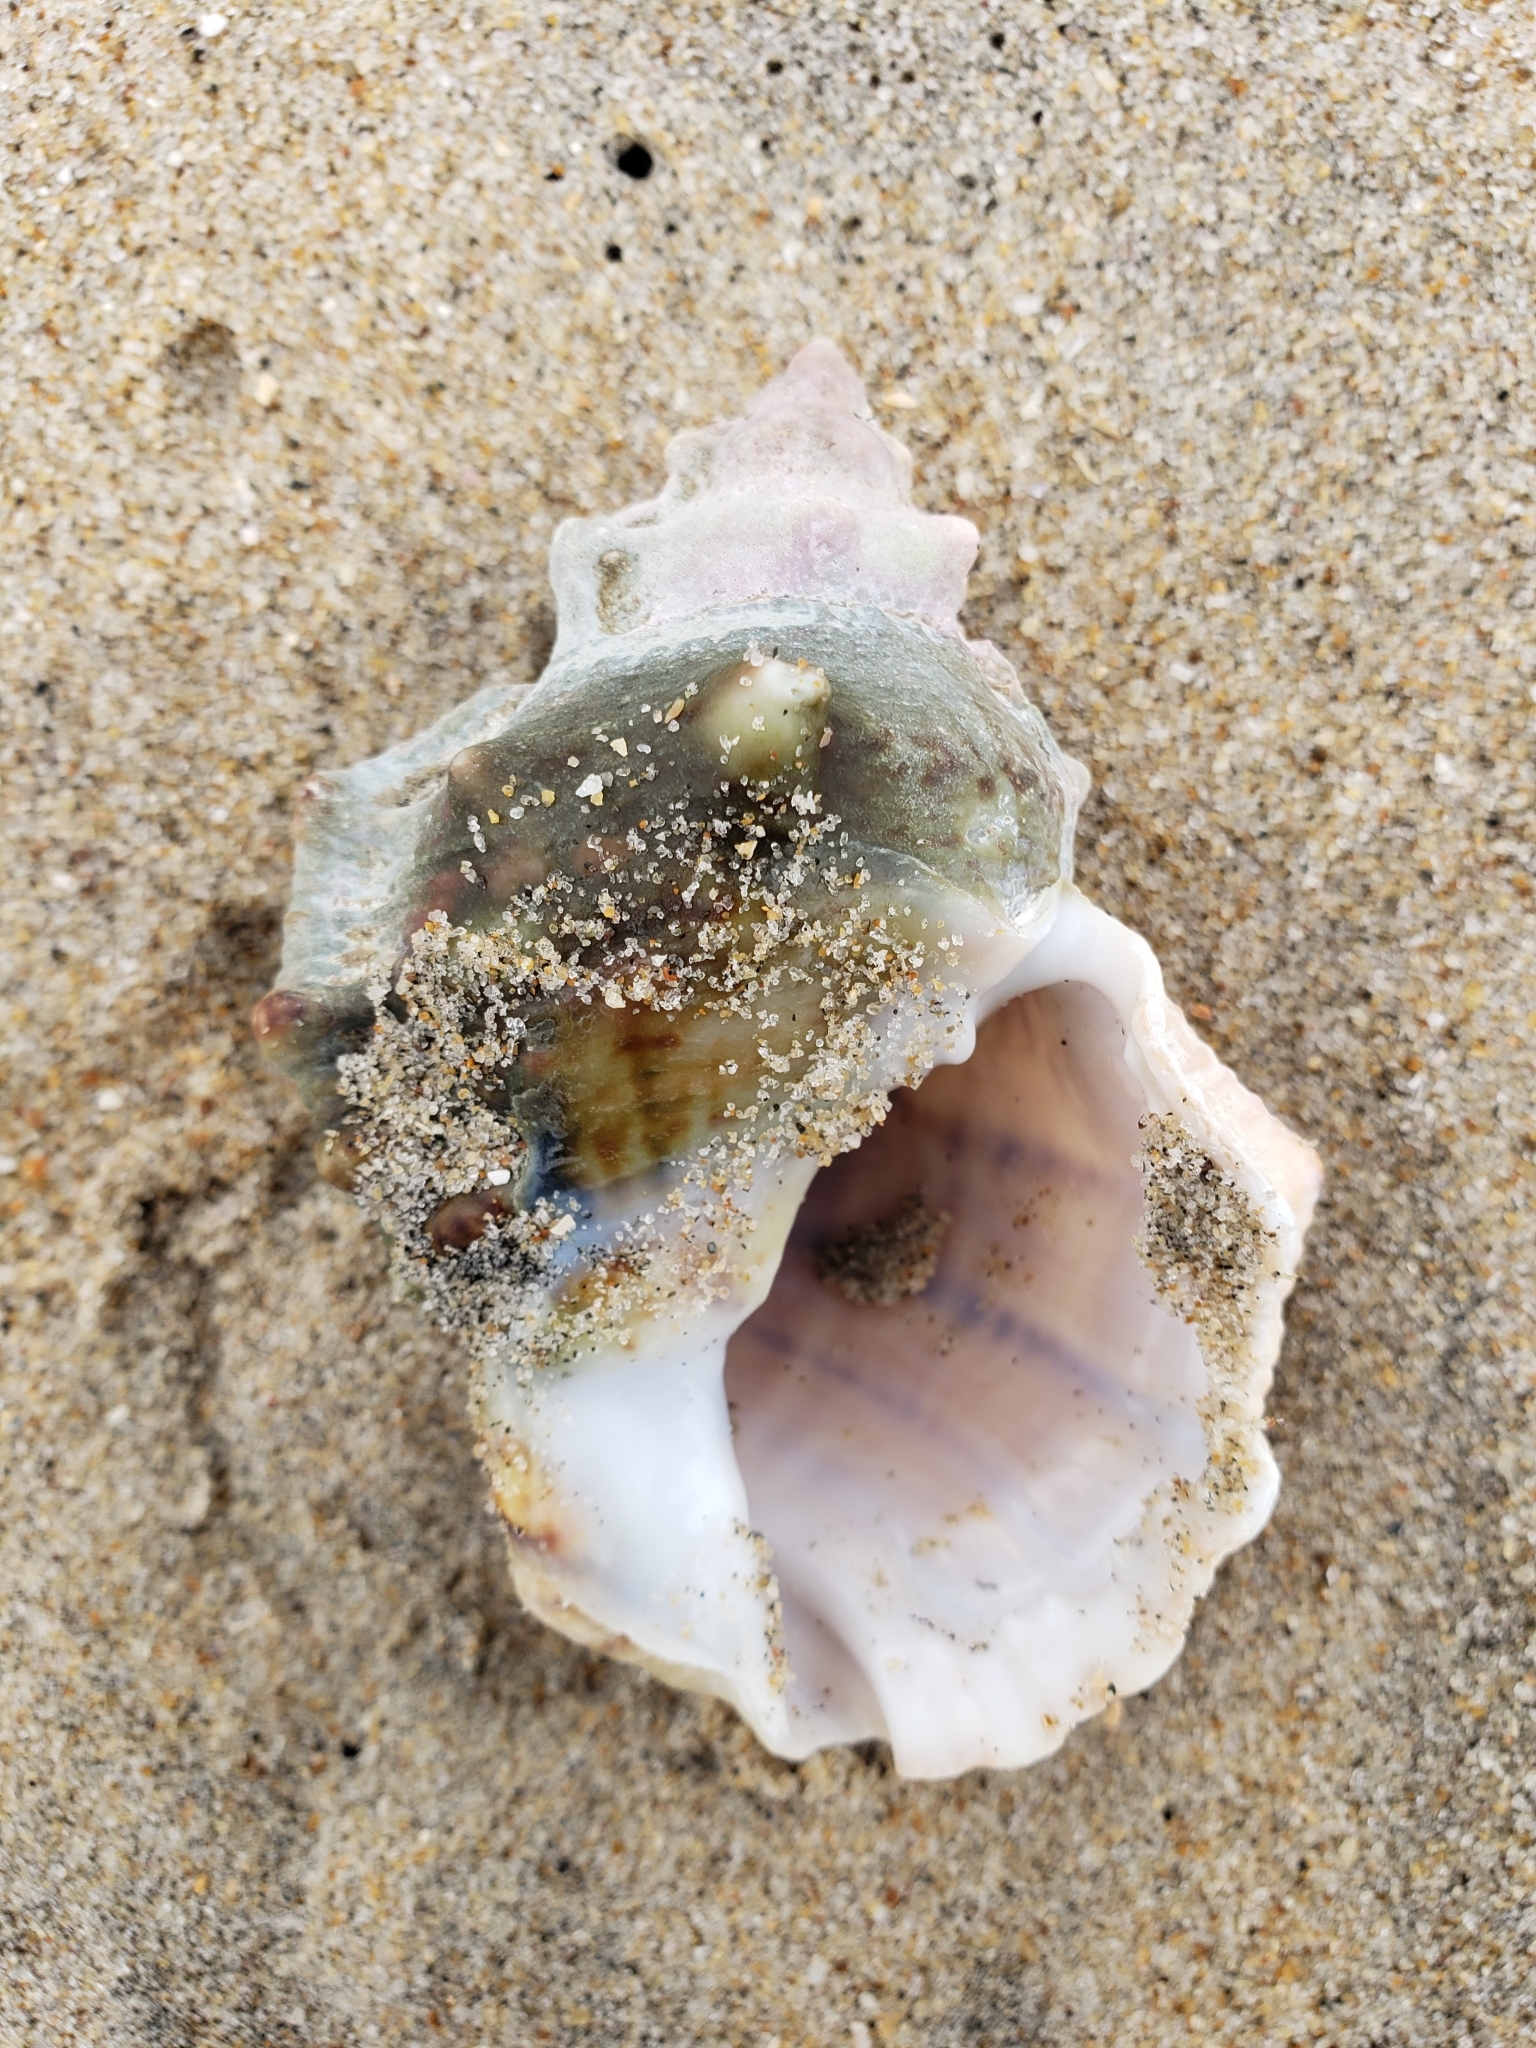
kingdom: Animalia
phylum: Mollusca
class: Gastropoda
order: Littorinimorpha
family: Bursidae
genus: Crossata
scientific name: Crossata californica
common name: California frogsnail
